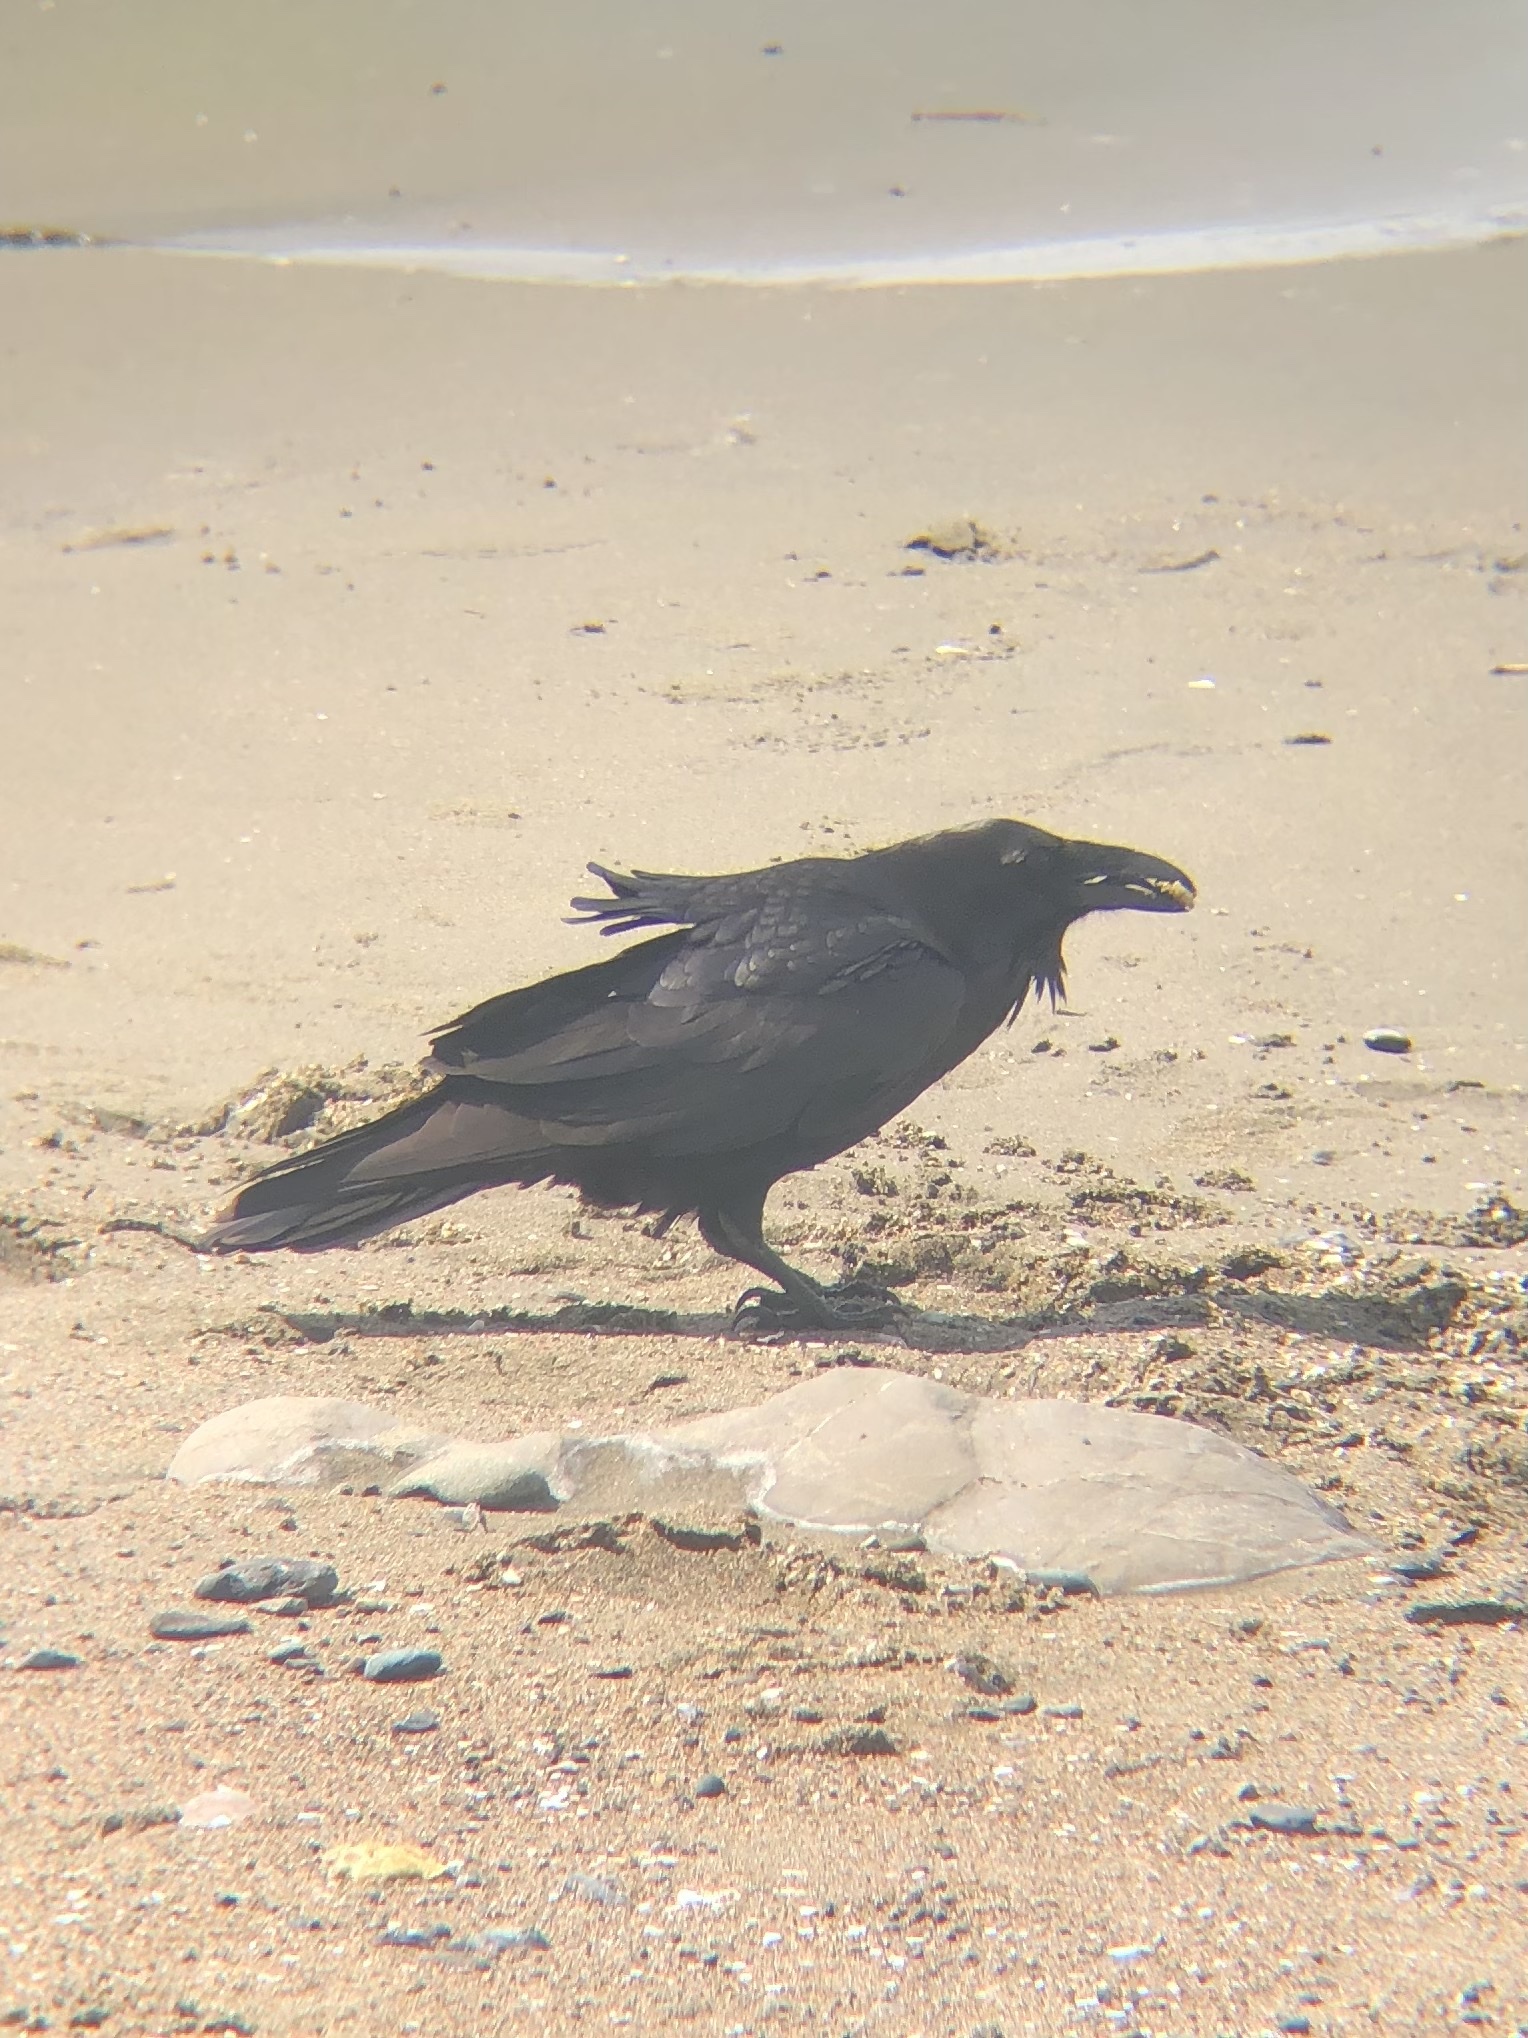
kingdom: Animalia
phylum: Chordata
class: Aves
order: Passeriformes
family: Corvidae
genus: Corvus
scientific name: Corvus corax
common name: Common raven
